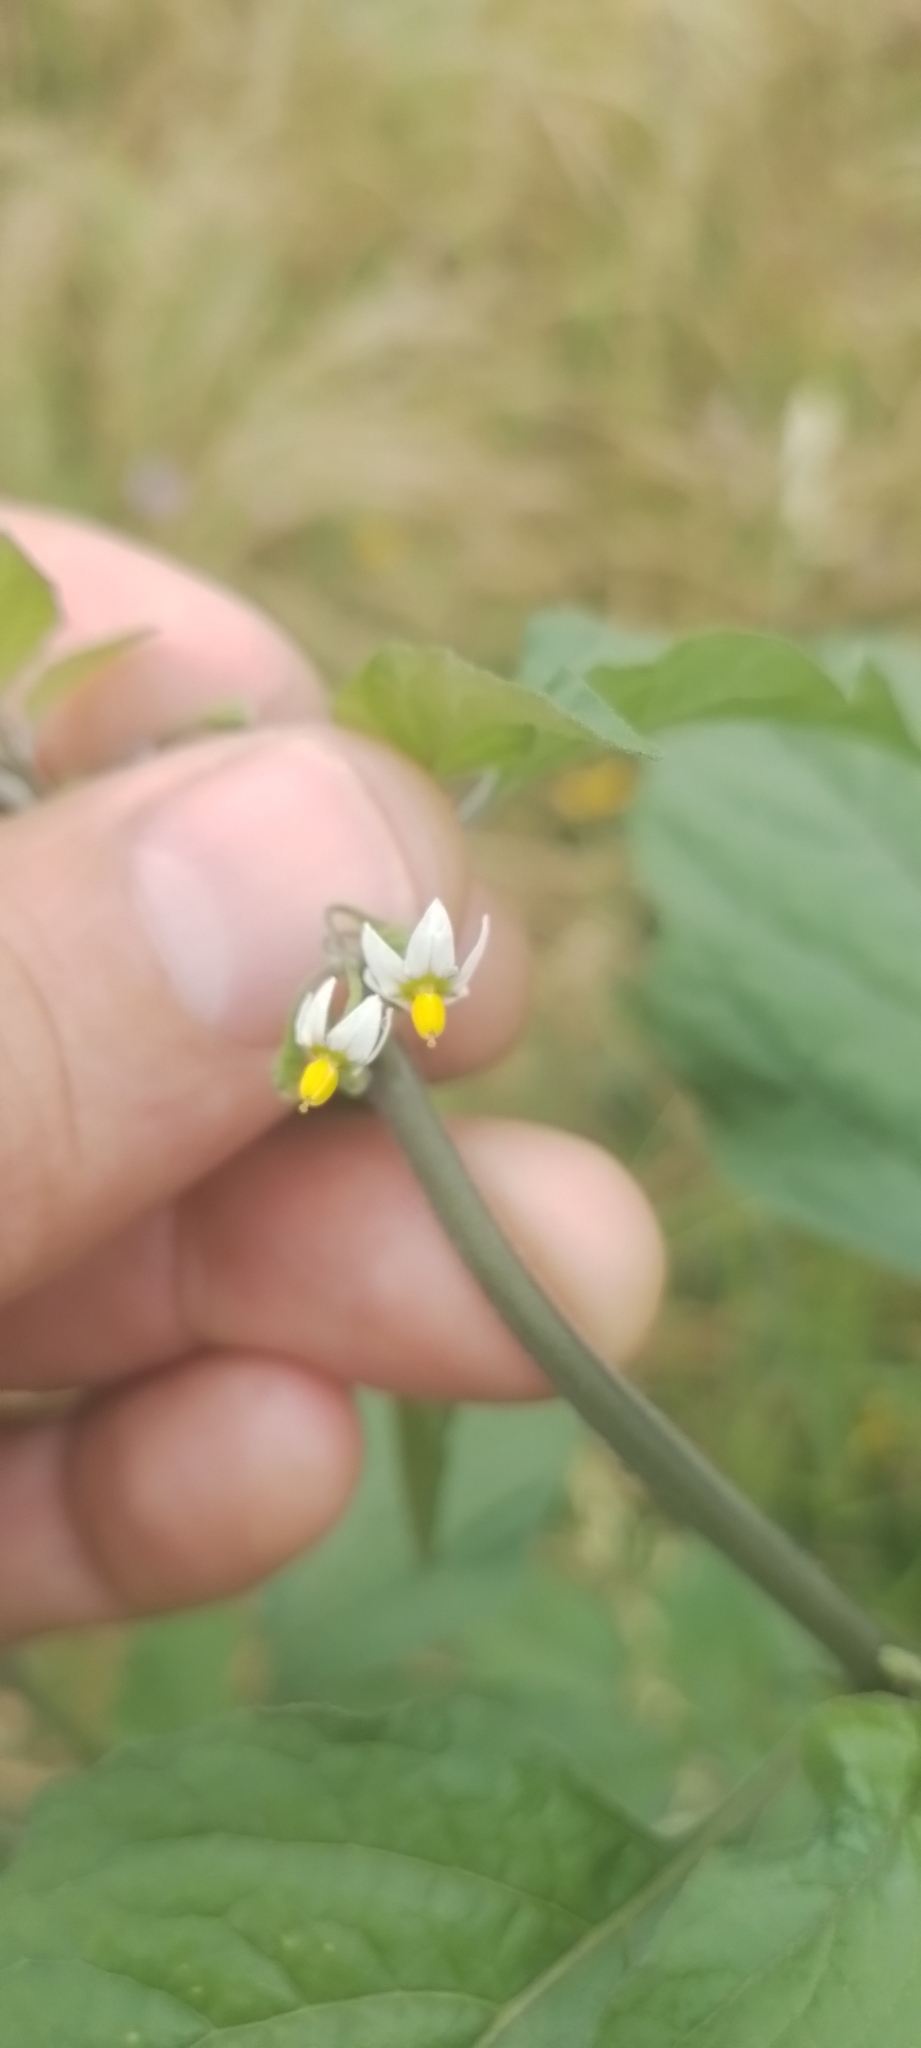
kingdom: Plantae
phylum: Tracheophyta
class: Magnoliopsida
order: Solanales
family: Solanaceae
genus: Solanum
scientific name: Solanum americanum
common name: American black nightshade
